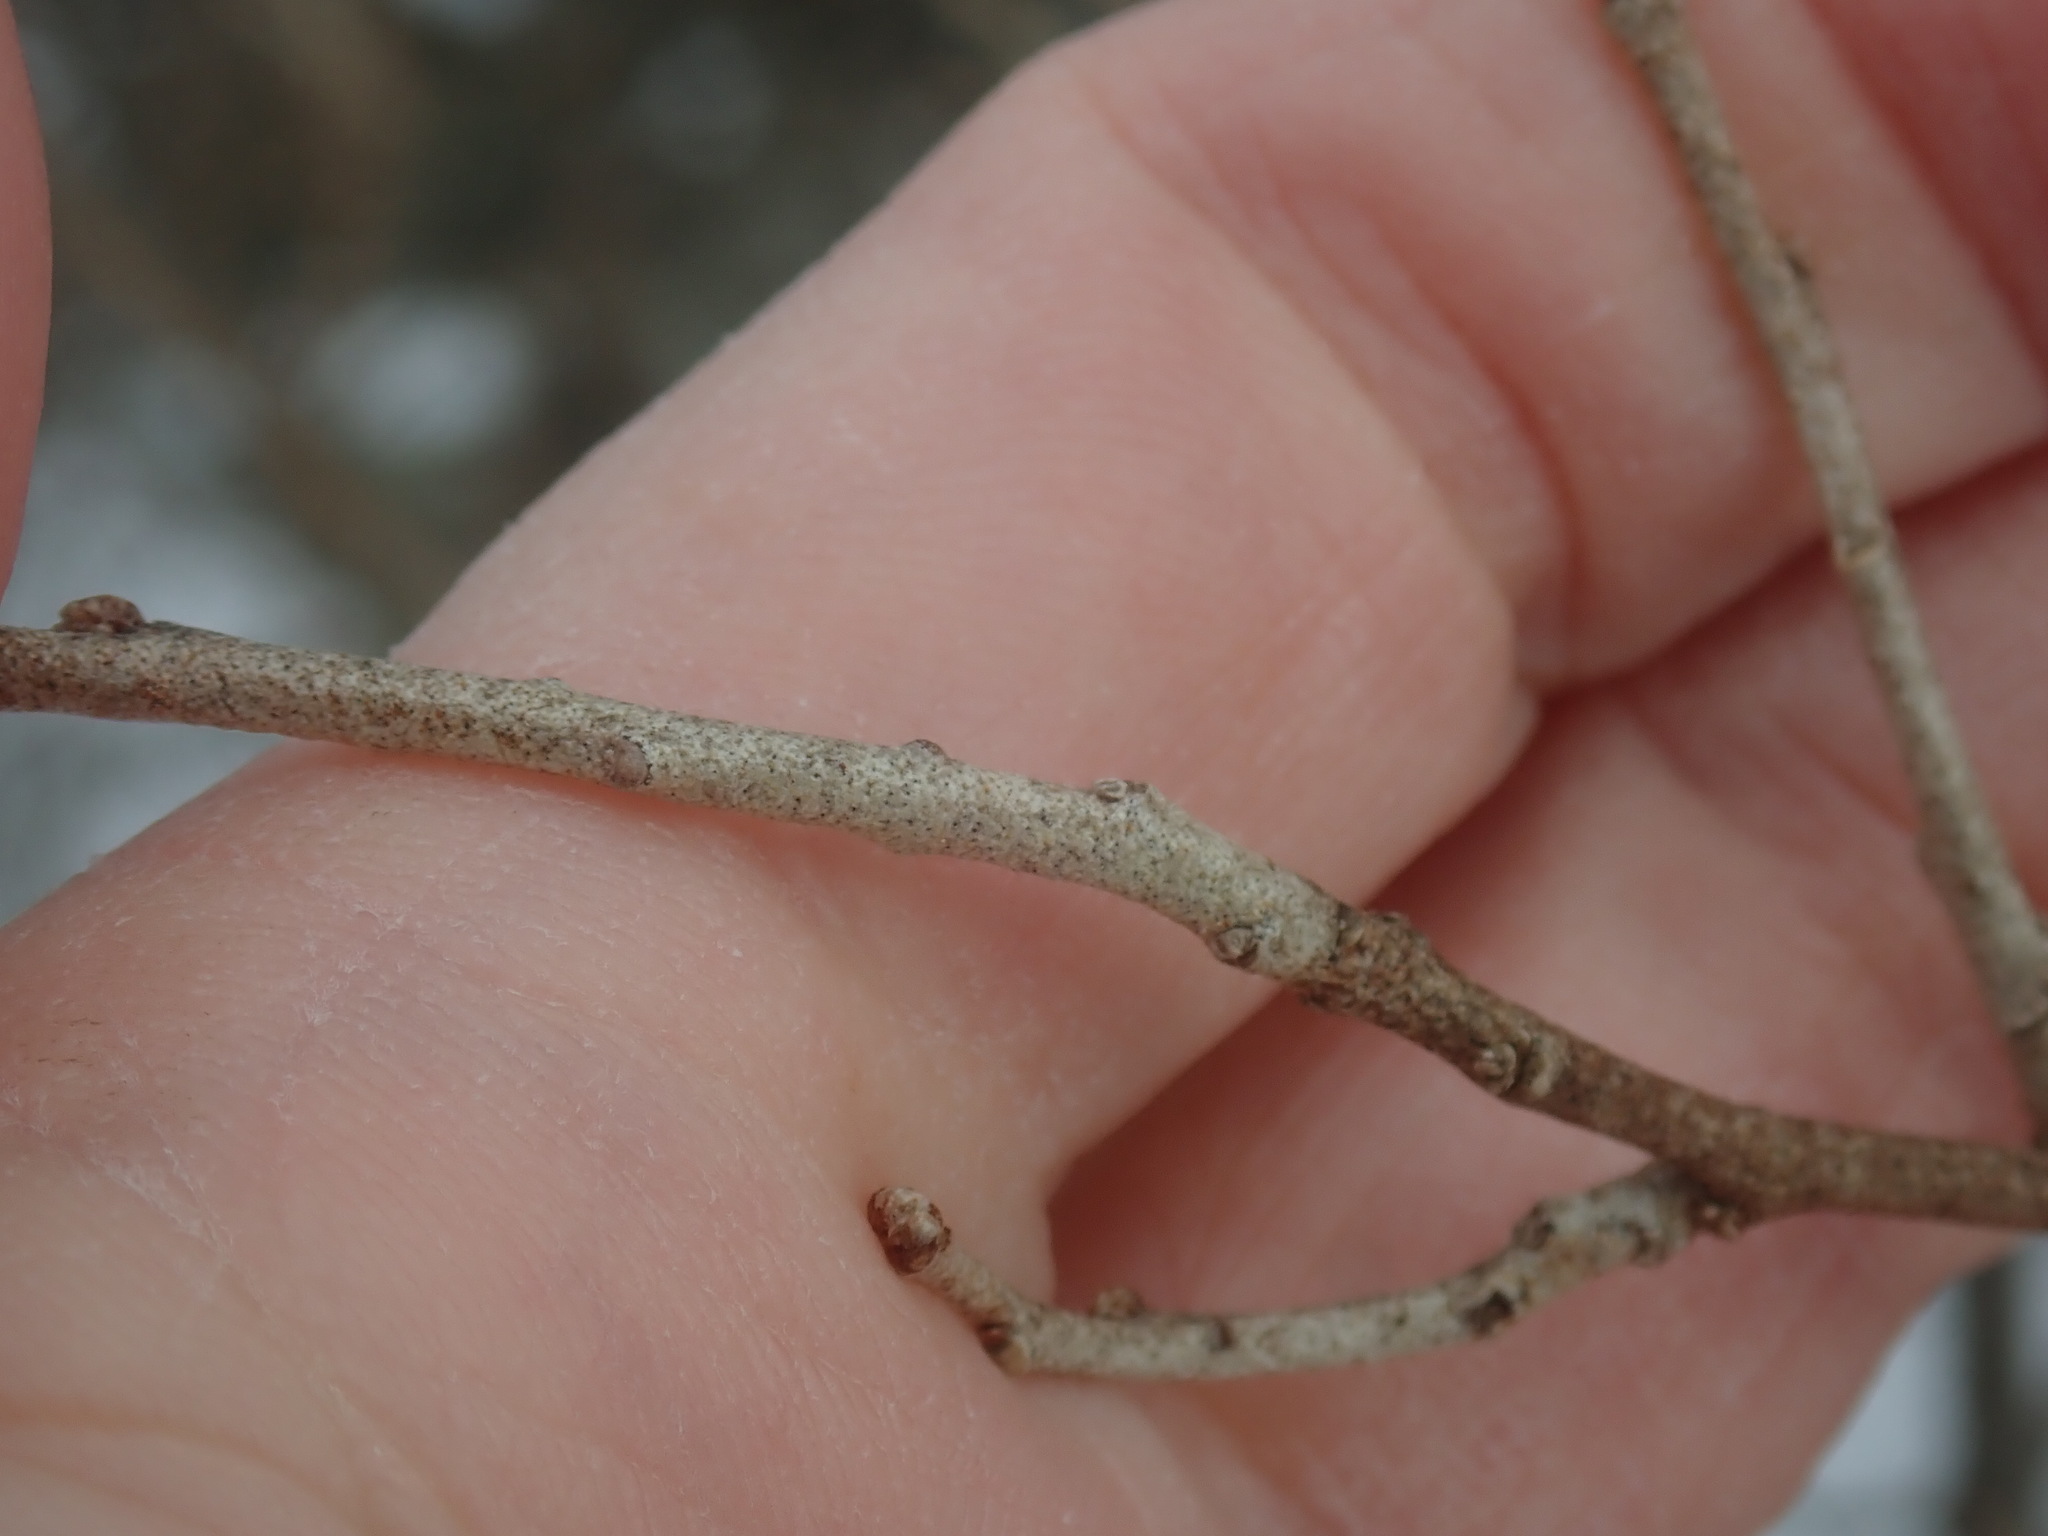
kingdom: Plantae
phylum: Tracheophyta
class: Magnoliopsida
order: Rosales
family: Elaeagnaceae
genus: Elaeagnus
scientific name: Elaeagnus umbellata
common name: Autumn olive
